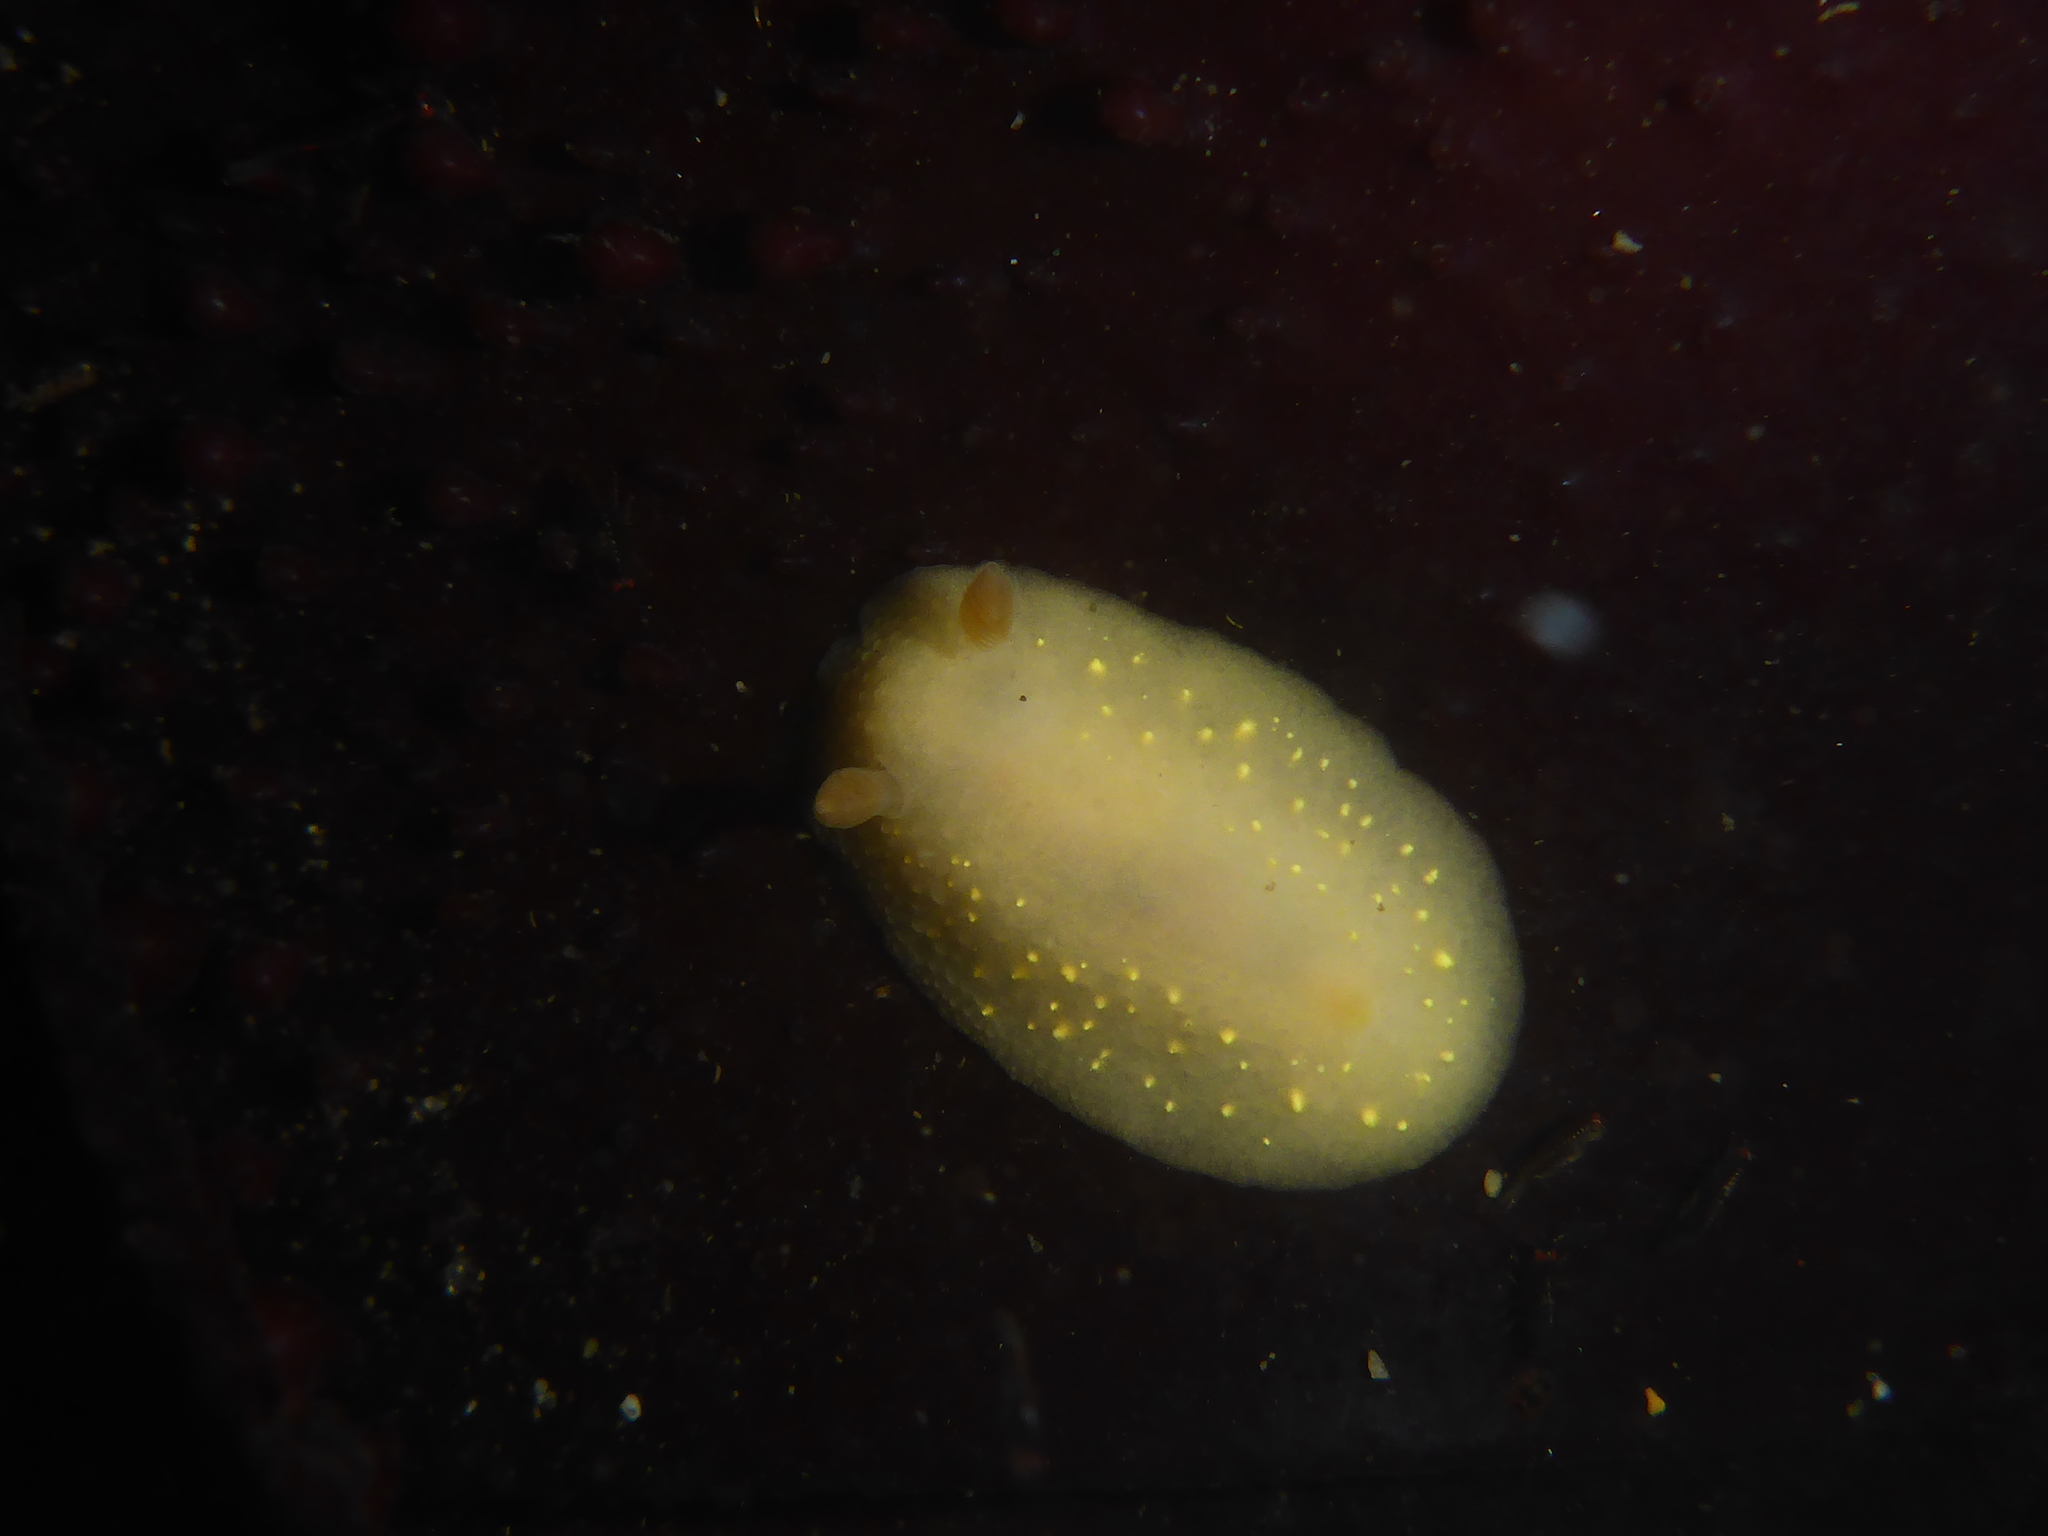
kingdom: Animalia
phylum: Mollusca
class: Gastropoda
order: Nudibranchia
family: Cadlinidae
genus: Cadlina
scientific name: Cadlina modesta
